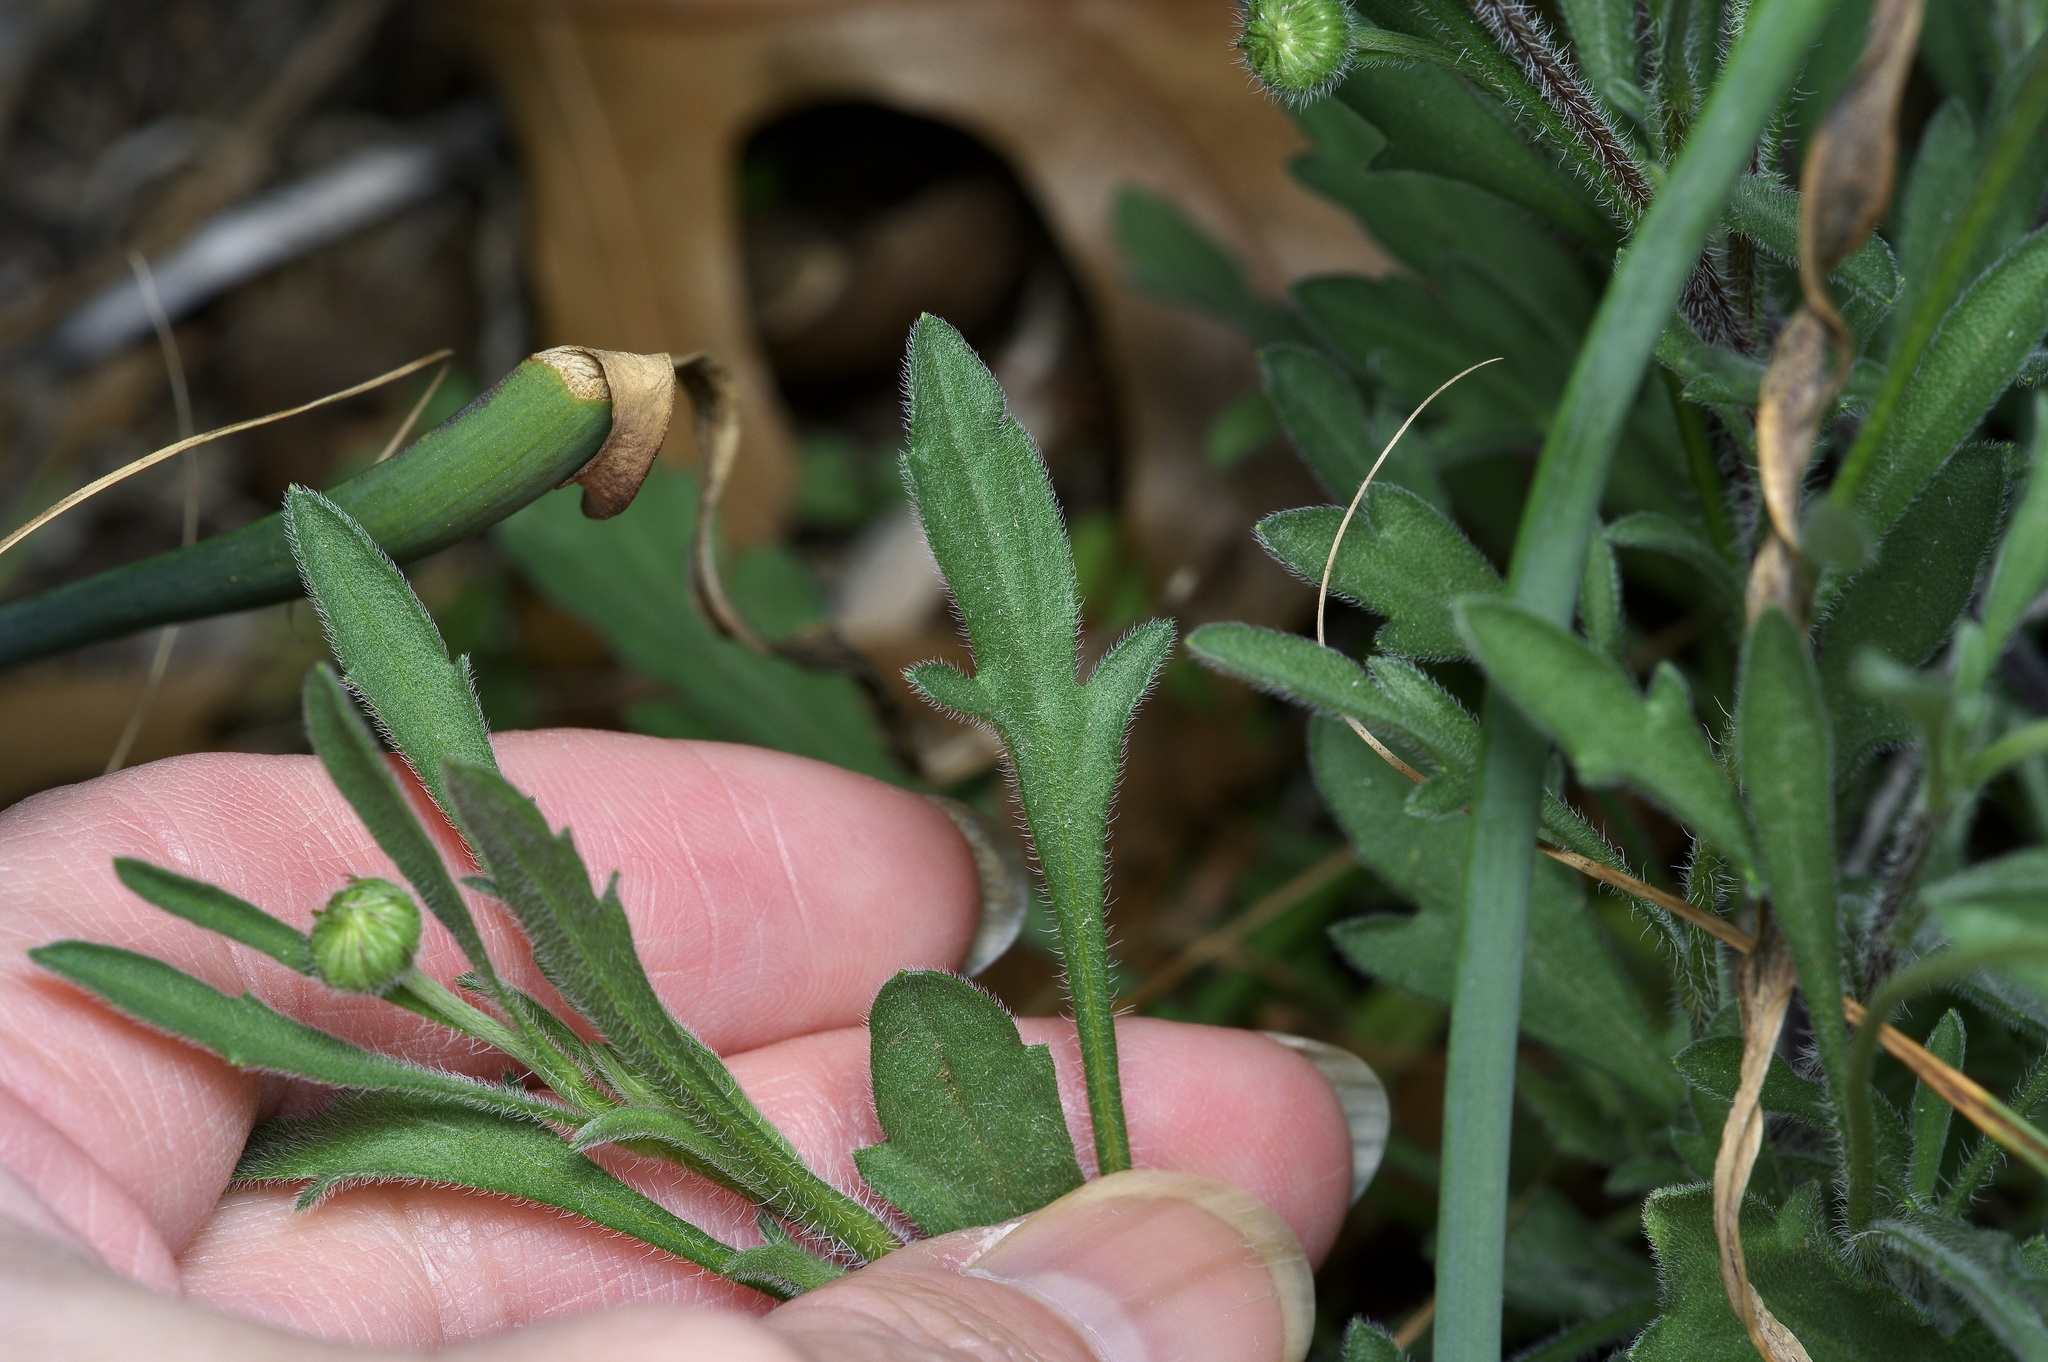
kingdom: Plantae
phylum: Tracheophyta
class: Magnoliopsida
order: Asterales
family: Asteraceae
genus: Erigeron
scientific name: Erigeron modestus
